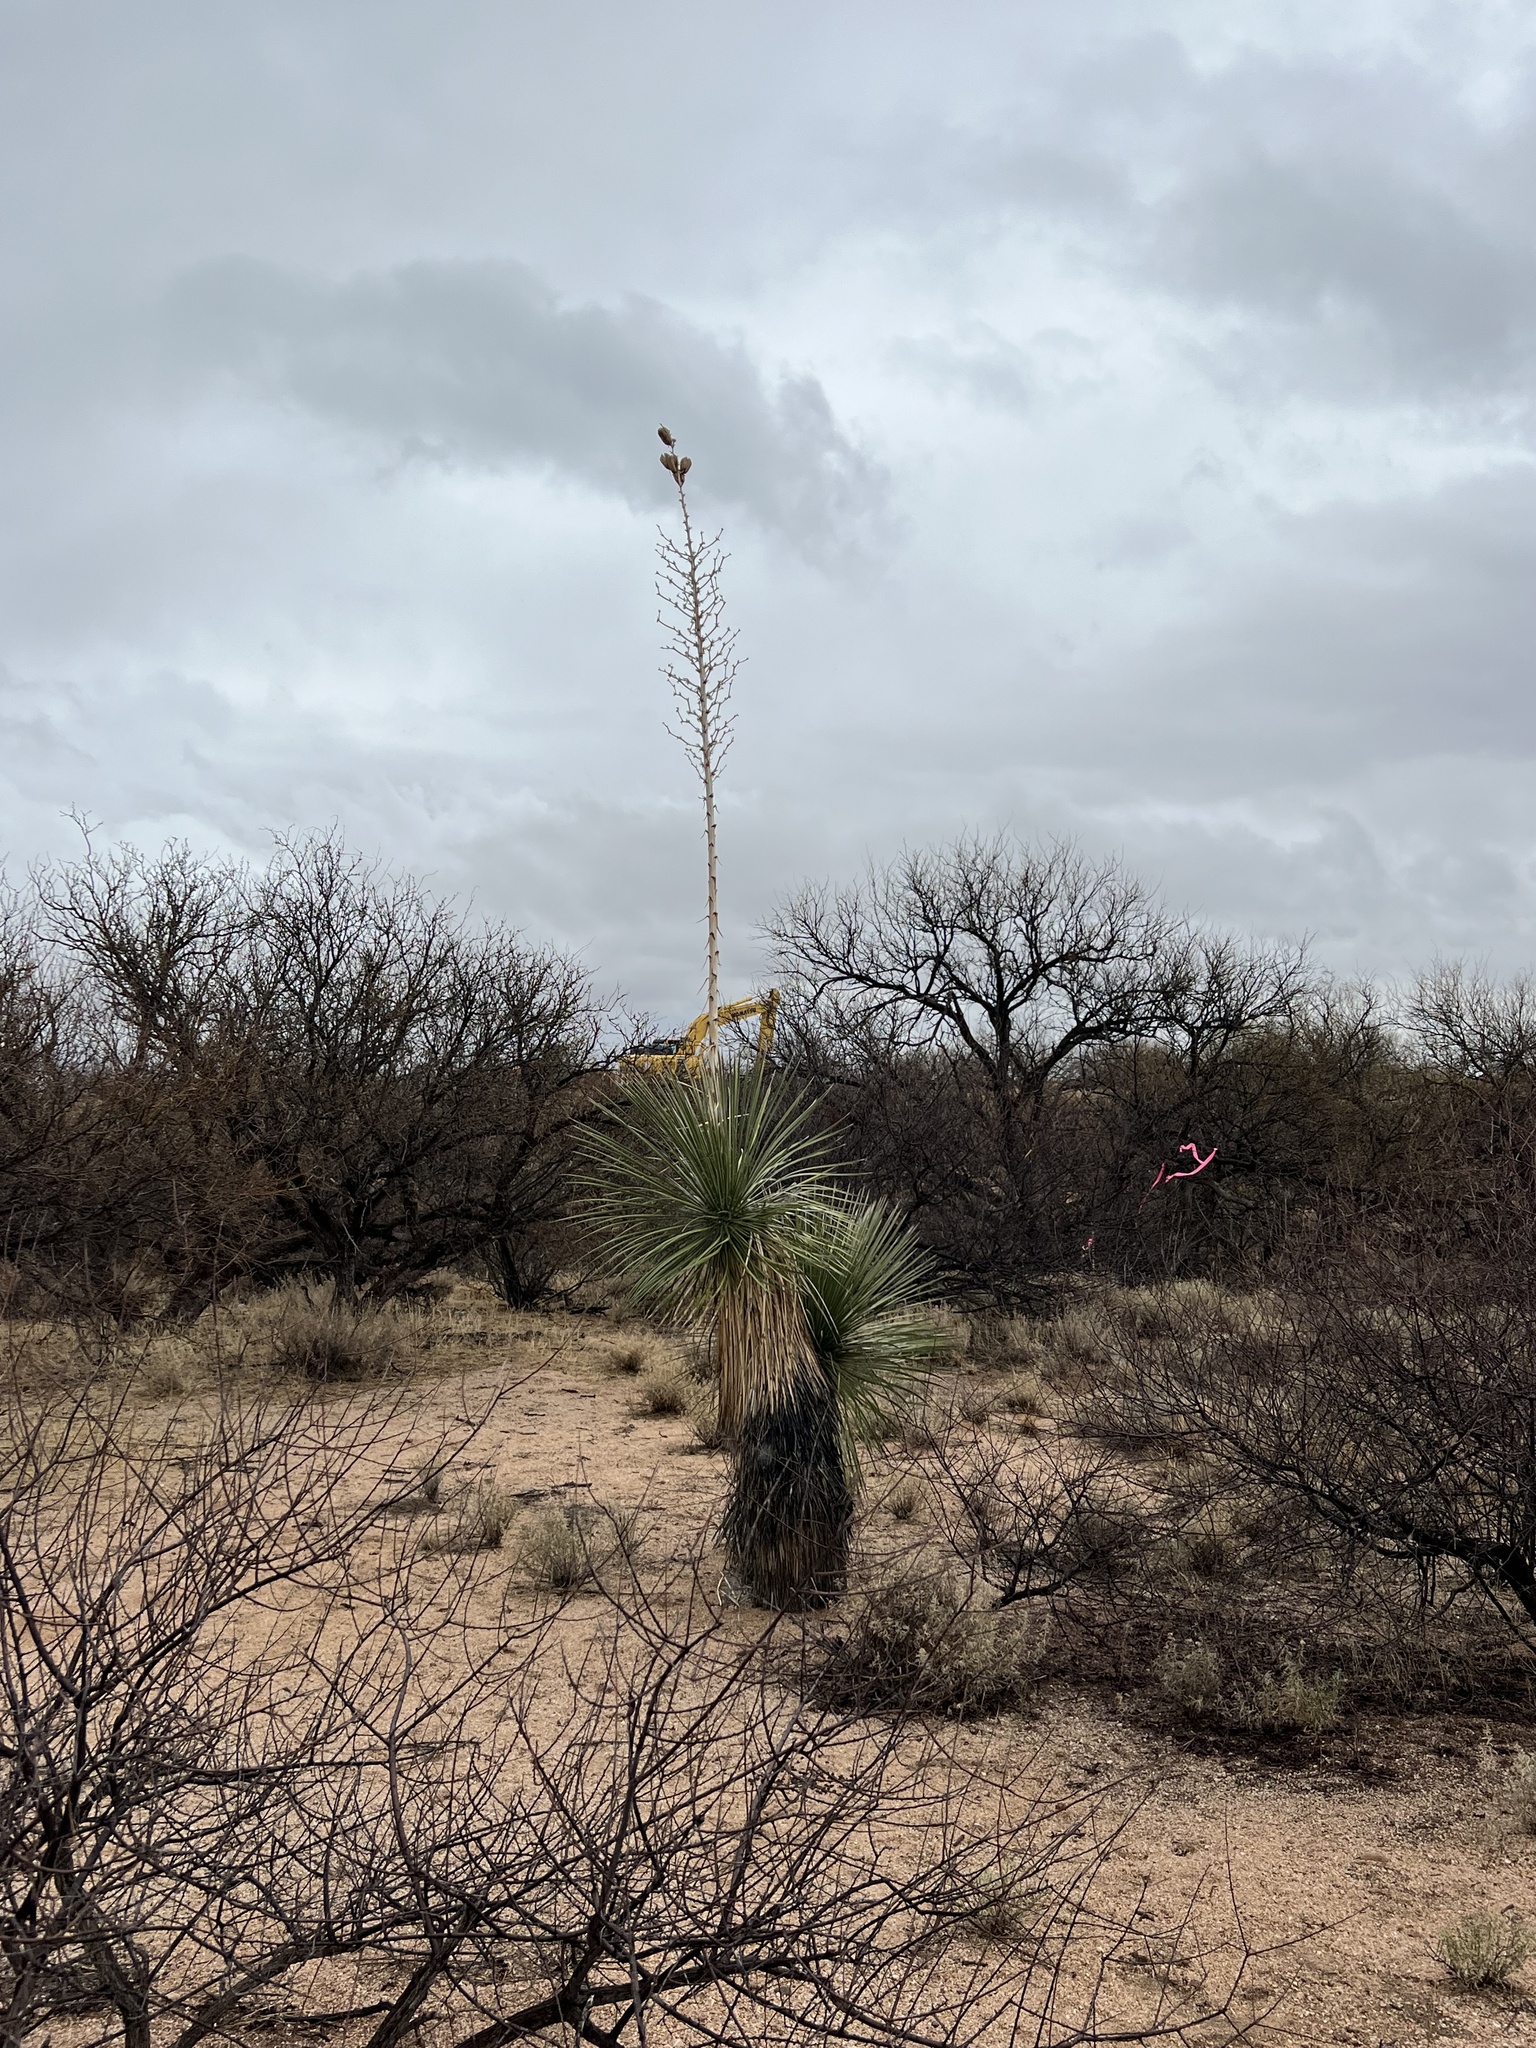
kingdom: Plantae
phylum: Tracheophyta
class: Liliopsida
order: Asparagales
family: Asparagaceae
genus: Yucca
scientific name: Yucca elata
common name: Palmella
